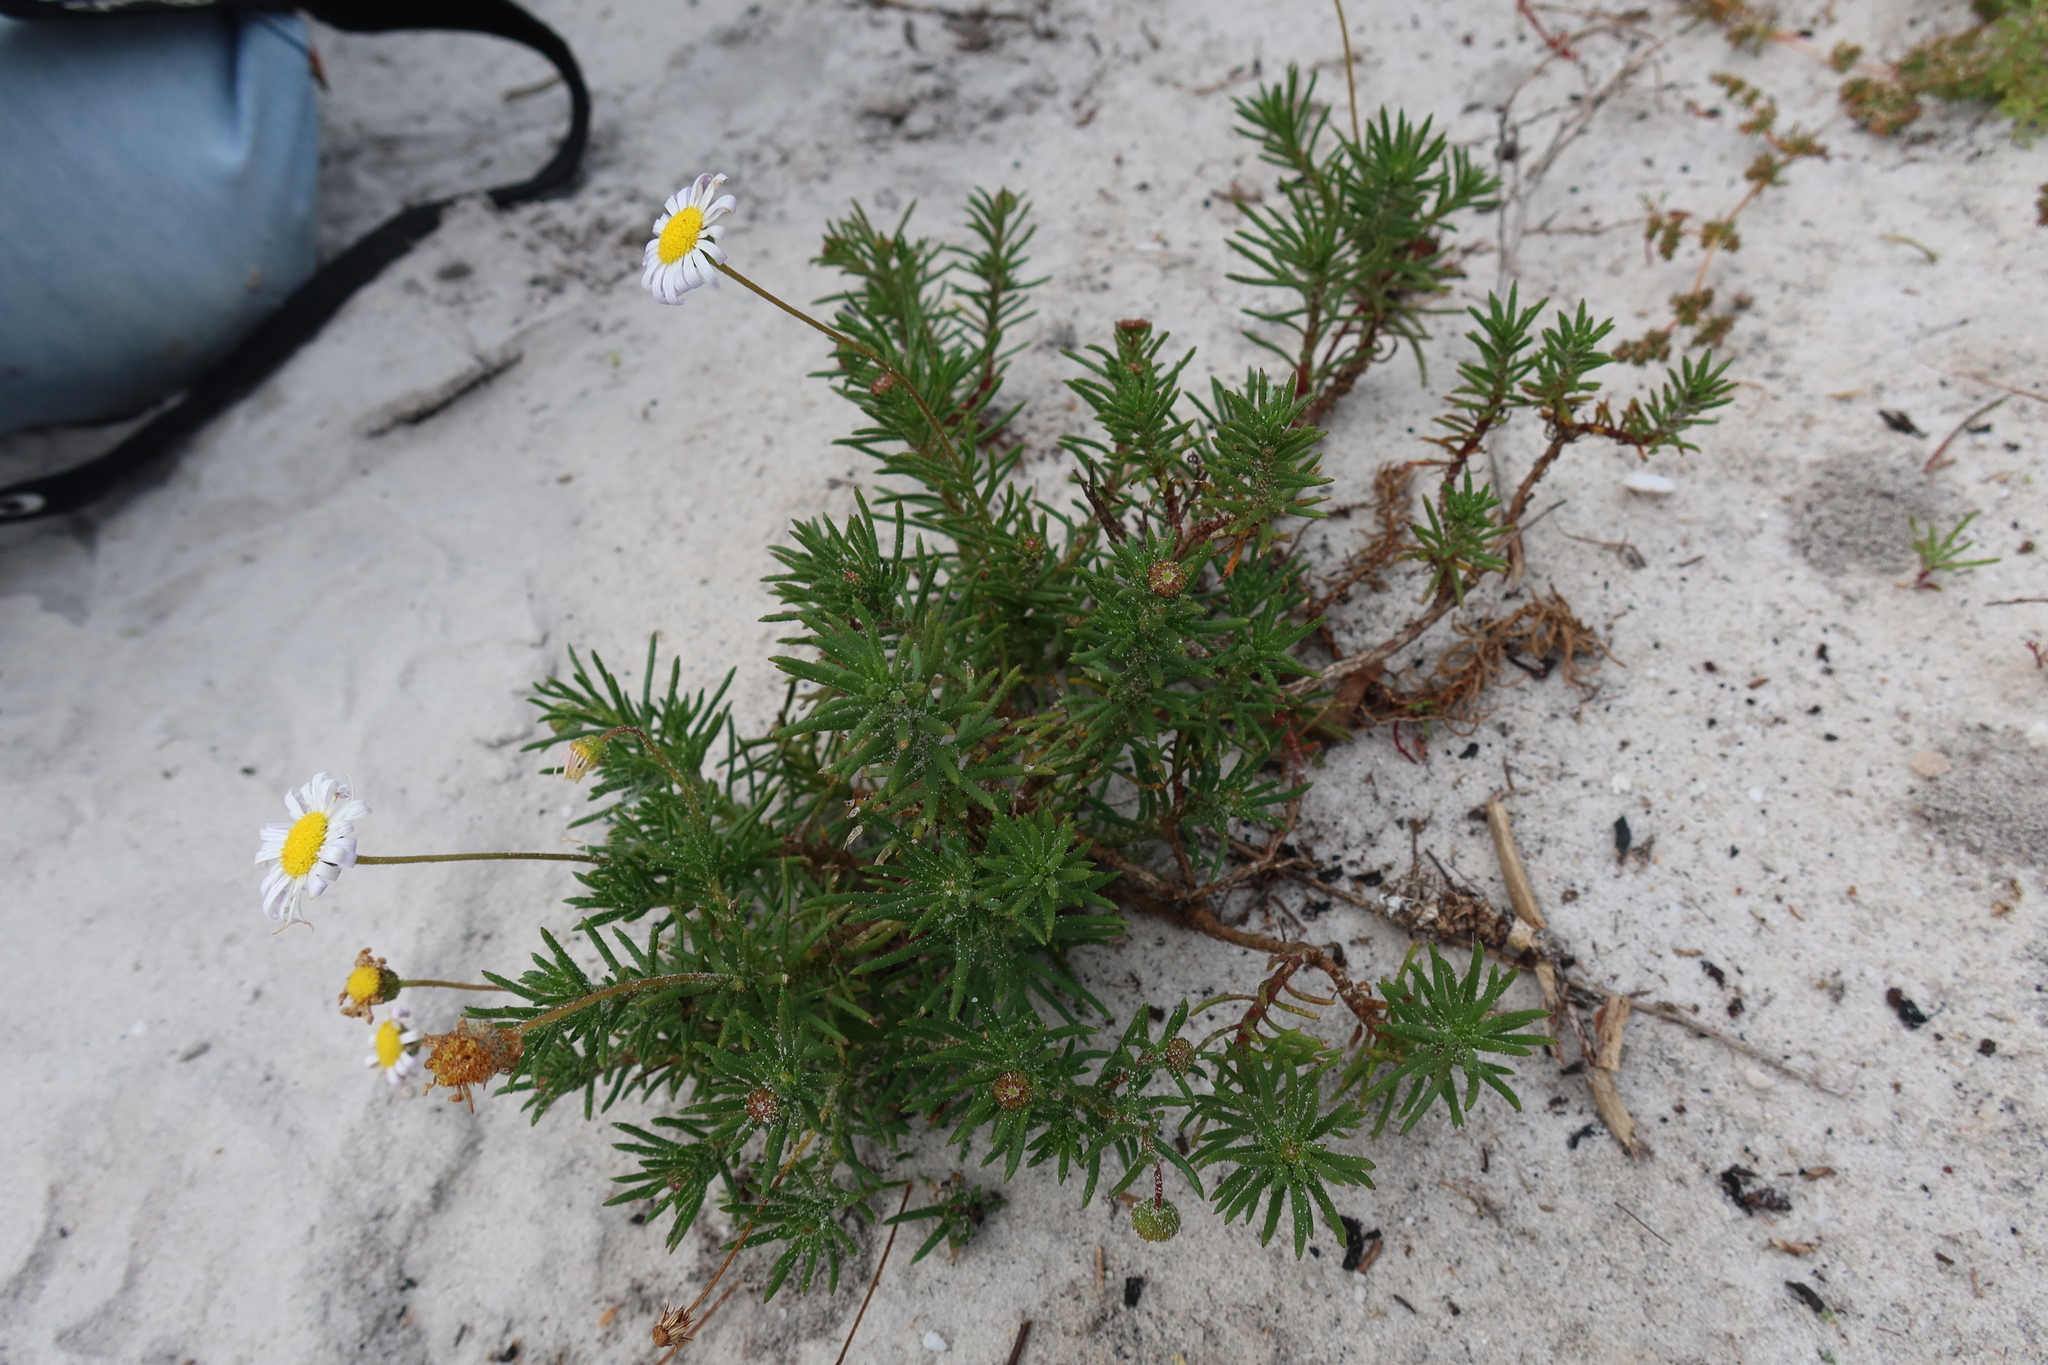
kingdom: Plantae
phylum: Tracheophyta
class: Magnoliopsida
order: Asterales
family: Asteraceae
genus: Felicia
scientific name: Felicia tenella
